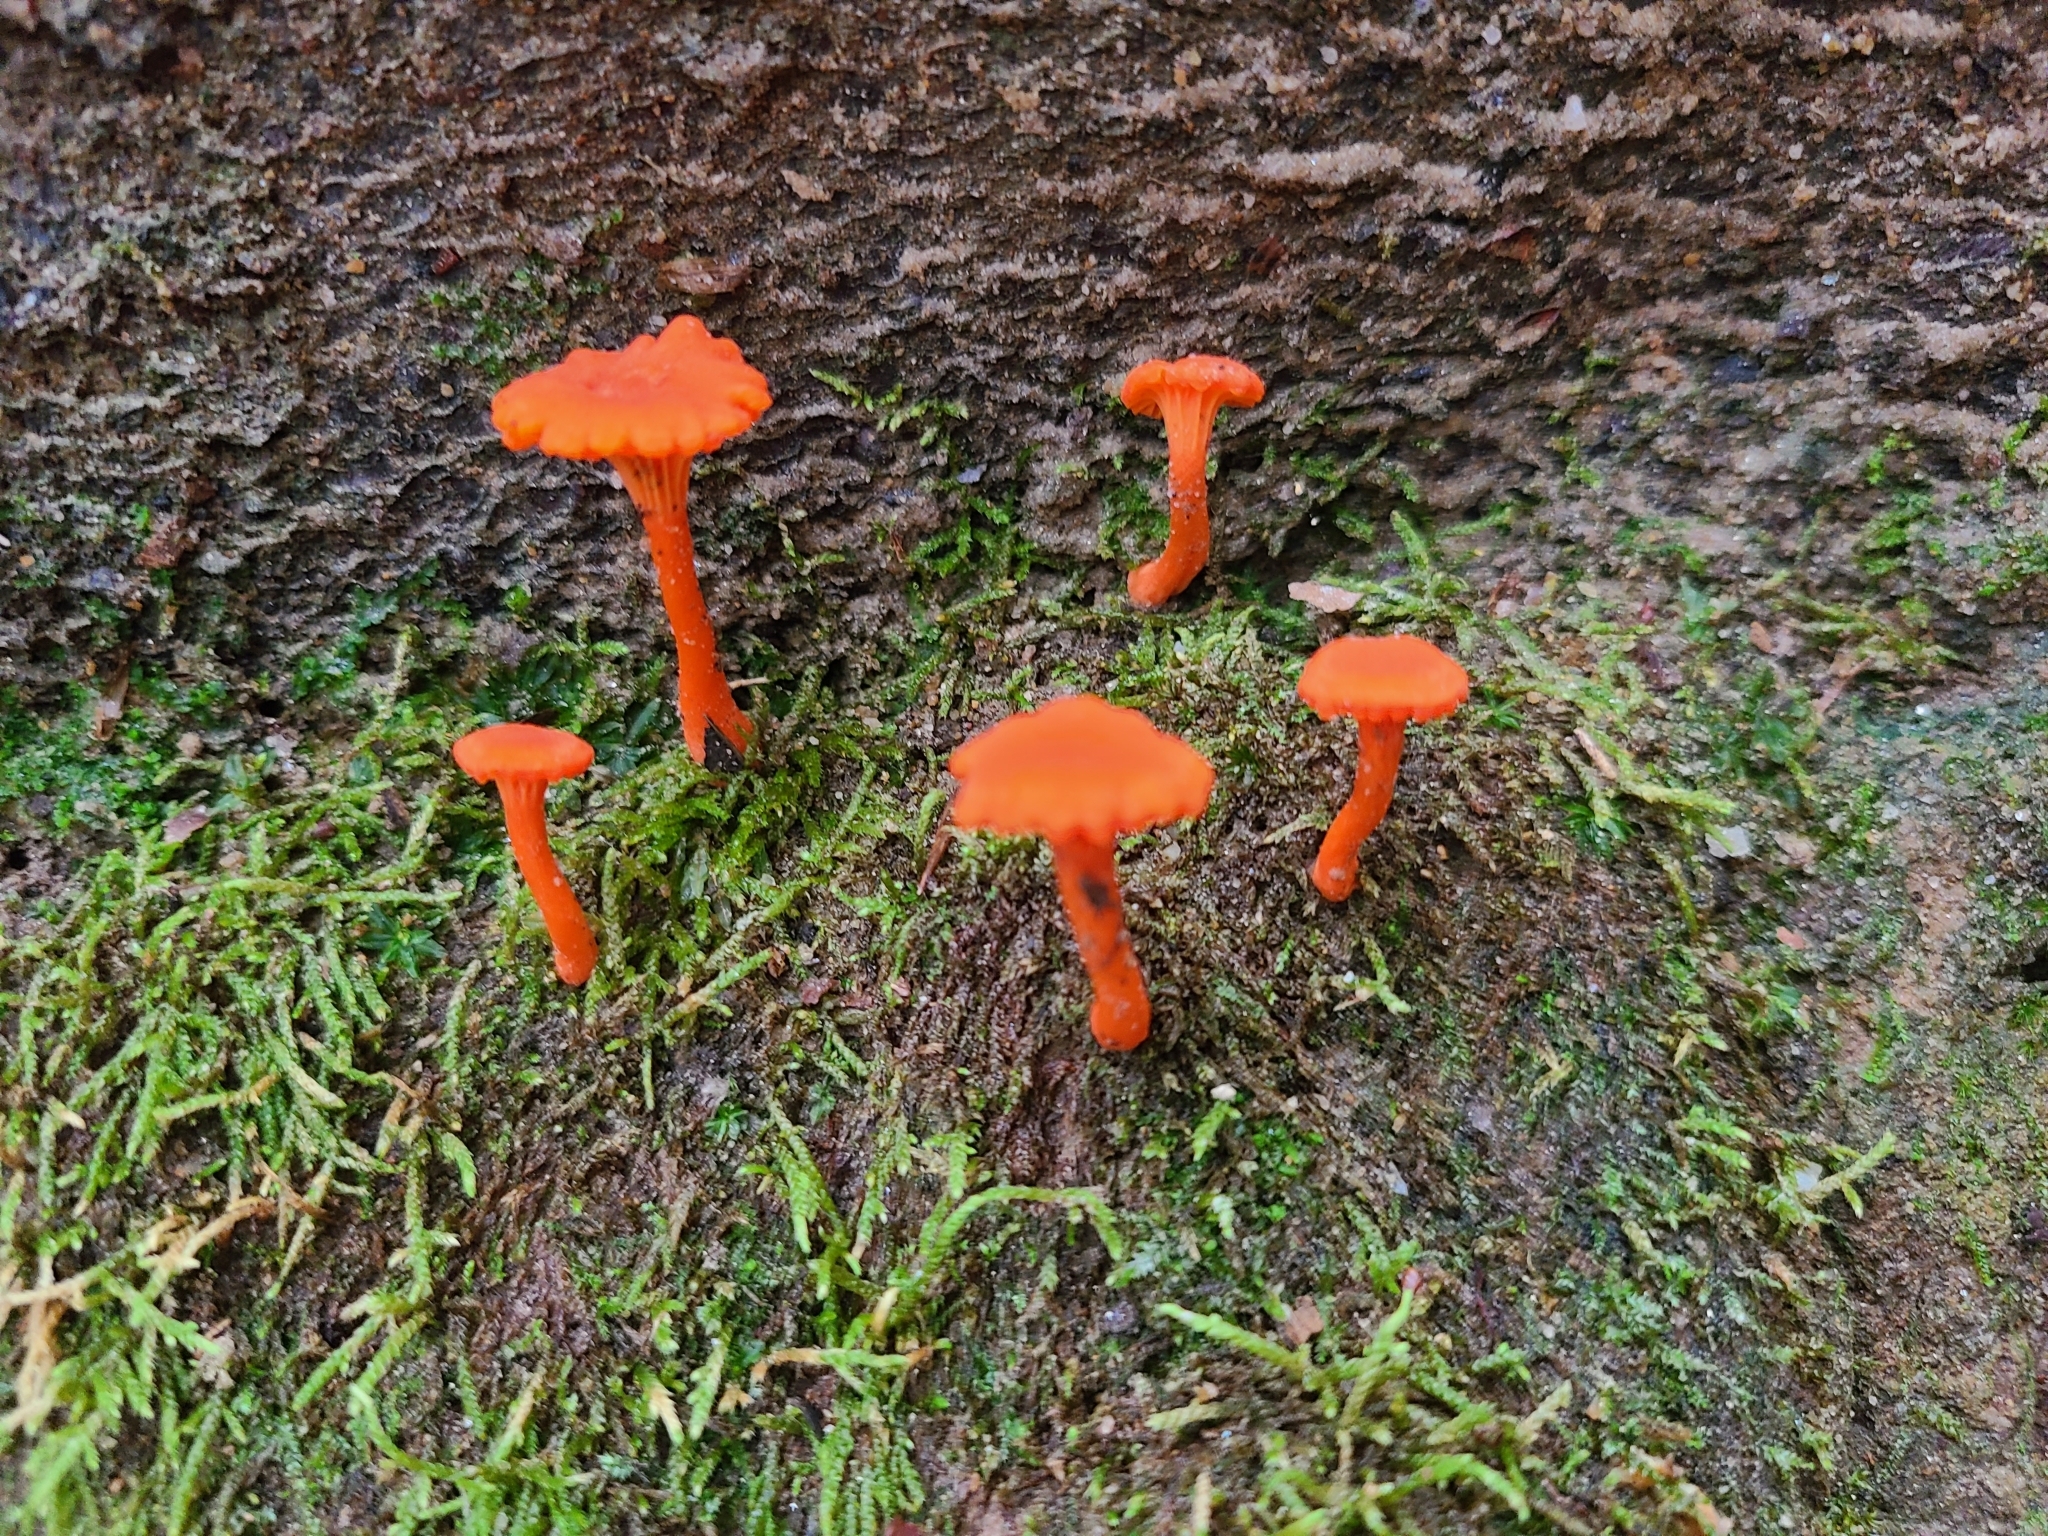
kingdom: Fungi
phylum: Basidiomycota
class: Agaricomycetes
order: Cantharellales
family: Hydnaceae
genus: Cantharellus
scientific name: Cantharellus cinnabarinus
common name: Cinnabar chanterelle
